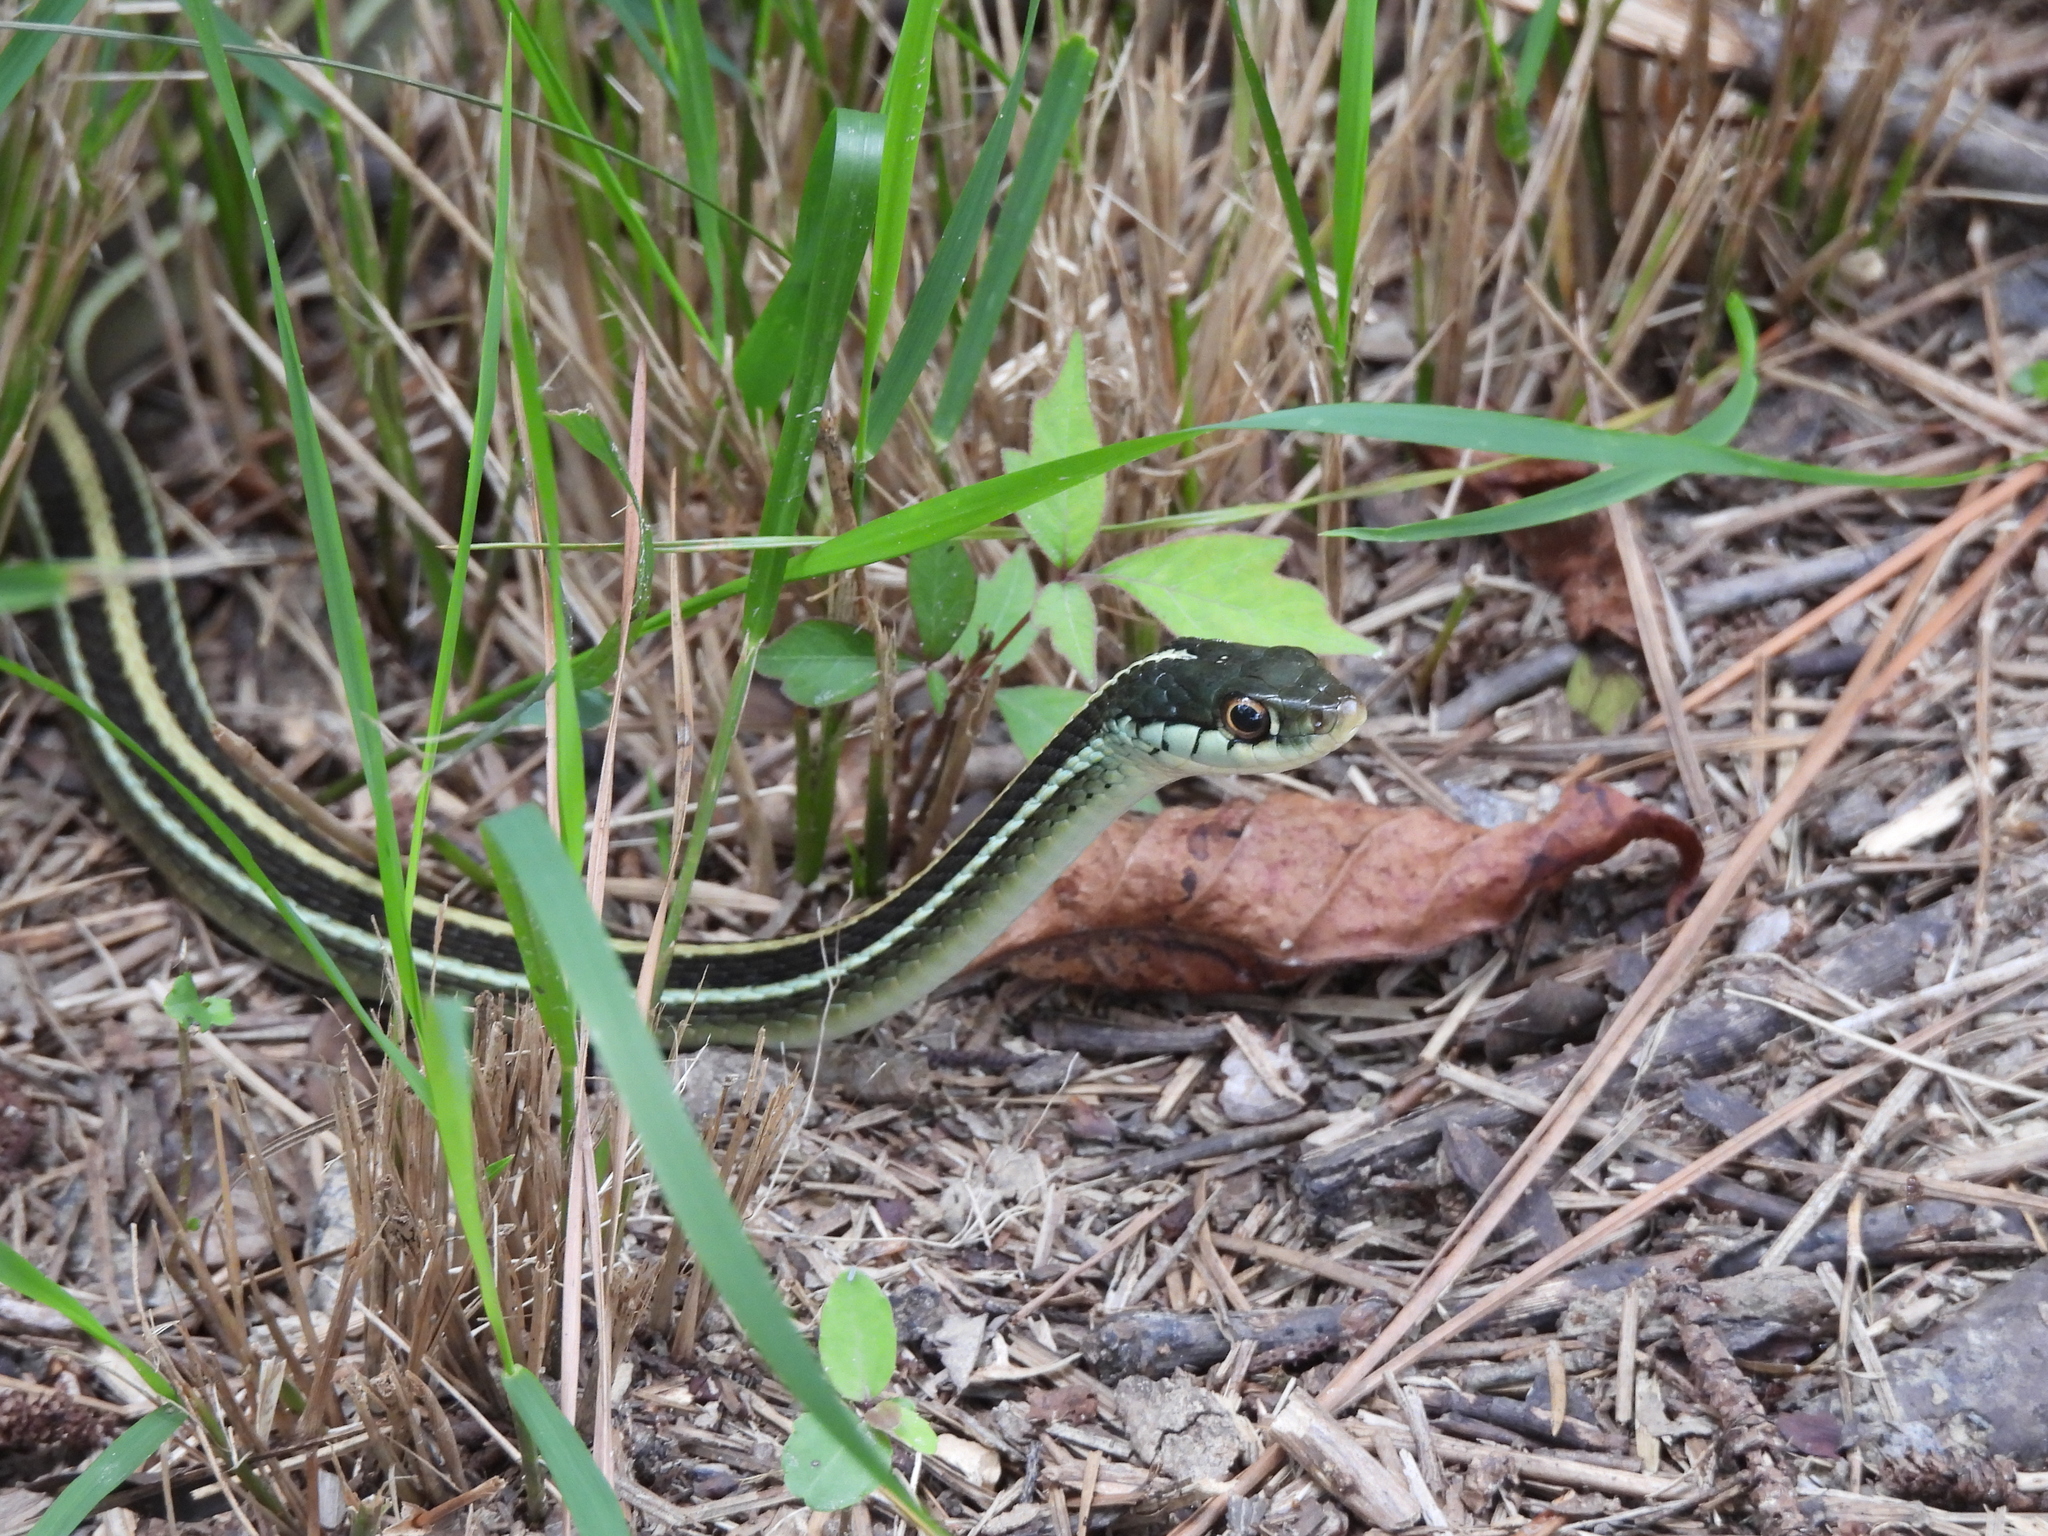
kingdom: Animalia
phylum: Chordata
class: Squamata
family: Colubridae
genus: Thamnophis
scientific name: Thamnophis proximus
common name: Western ribbon snake
